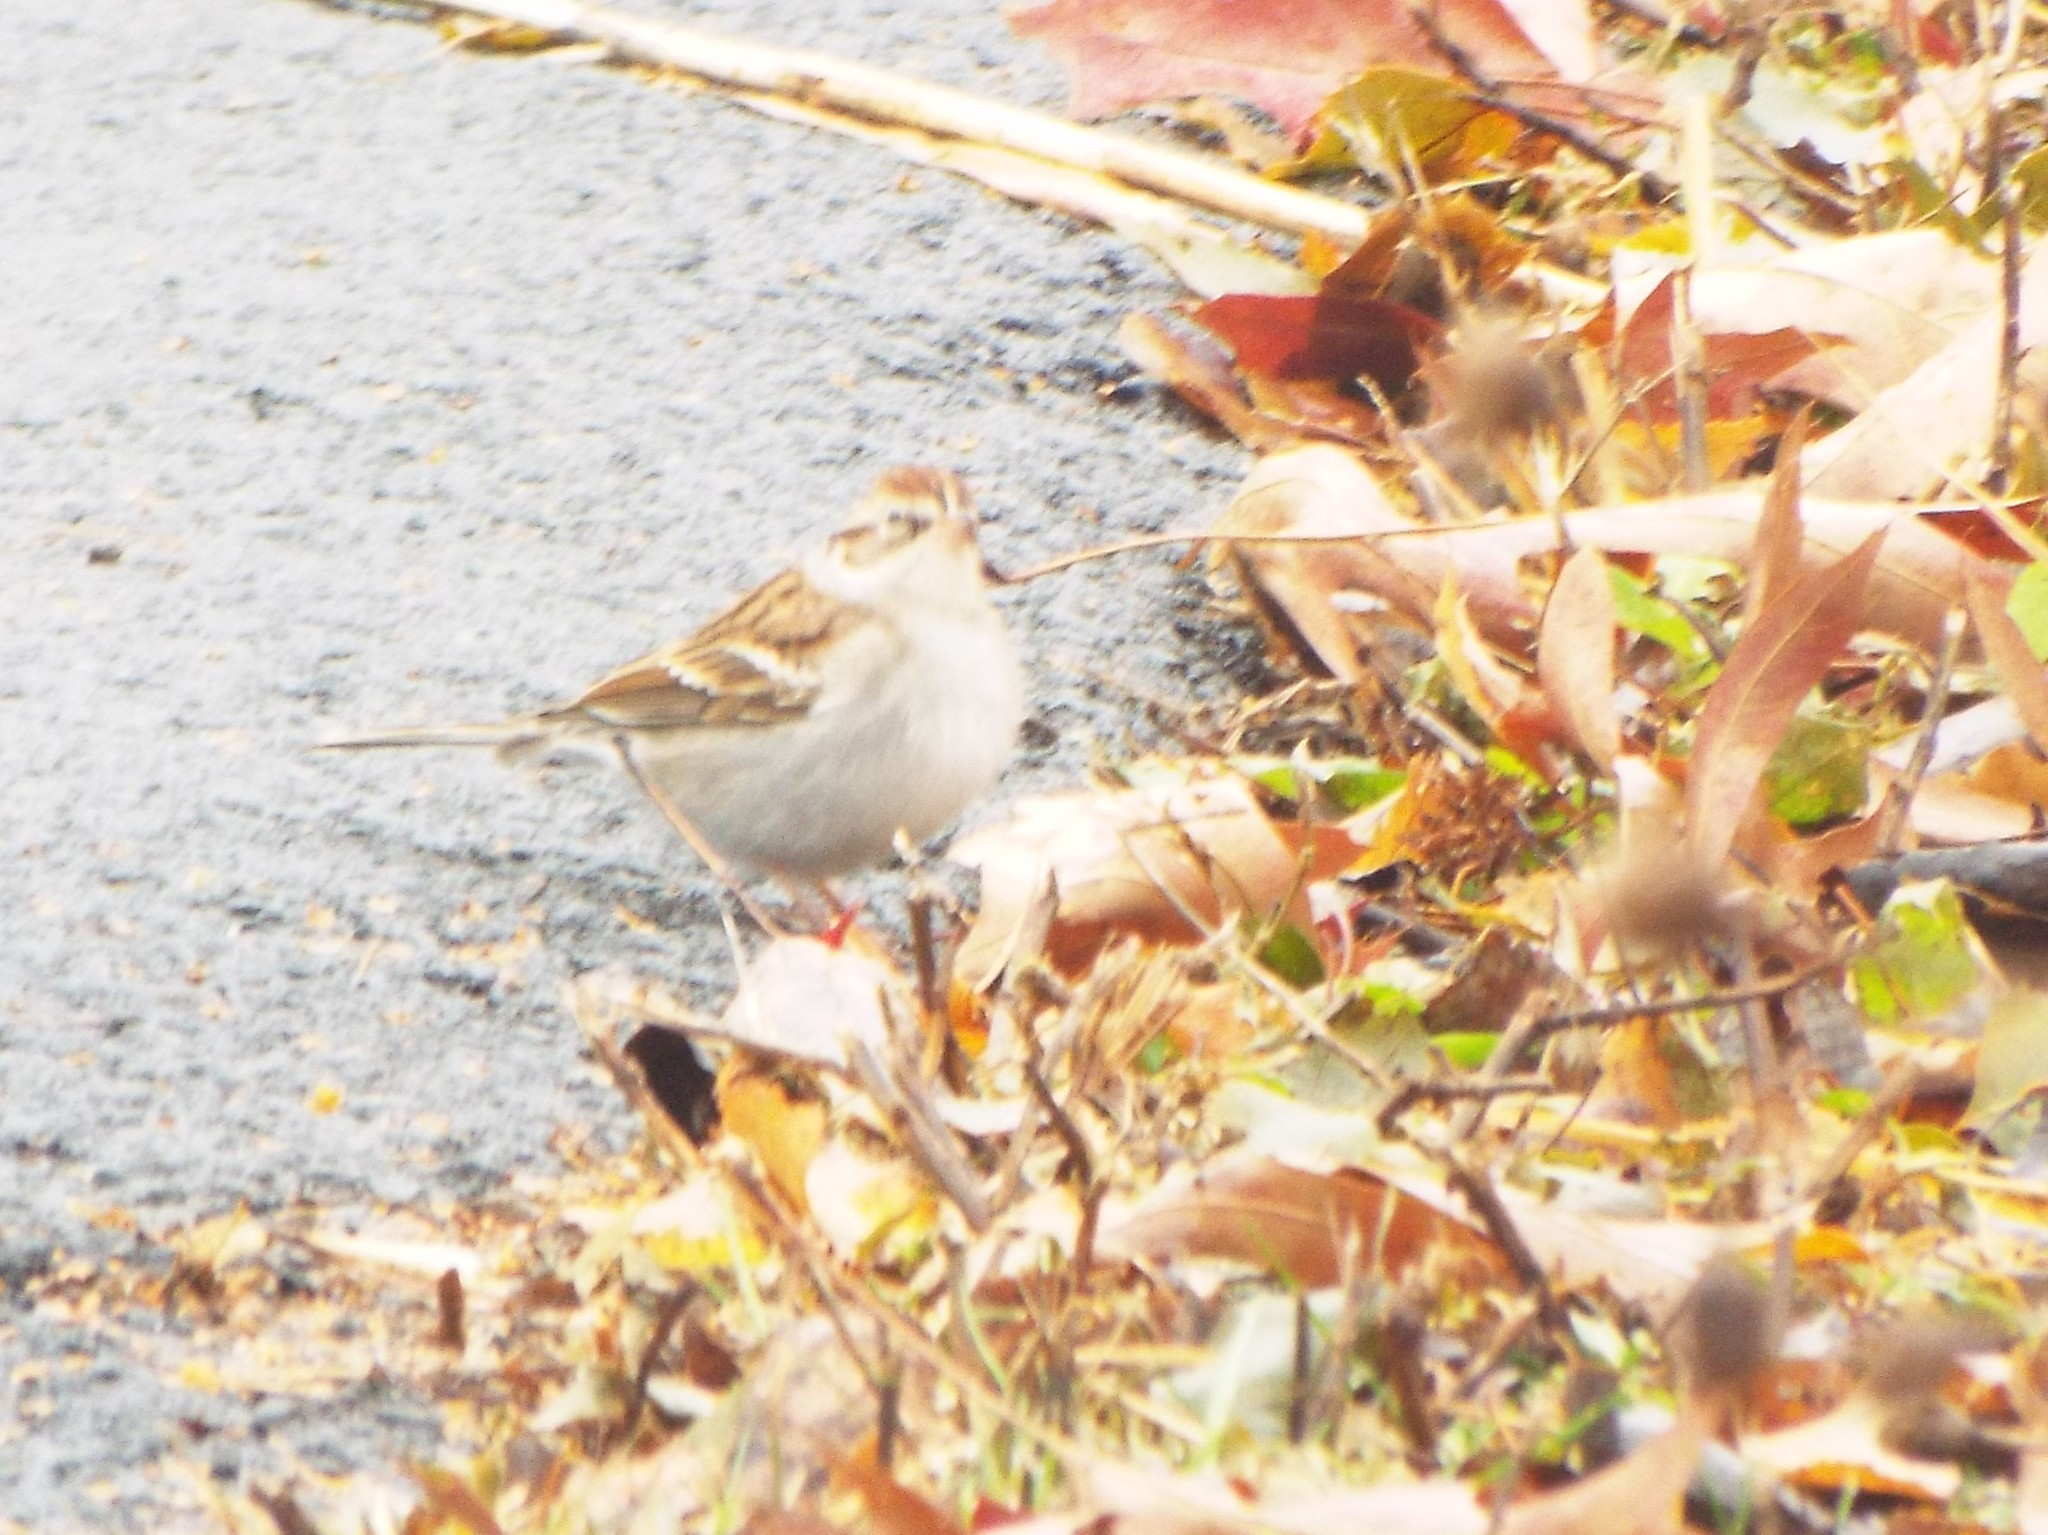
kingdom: Animalia
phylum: Chordata
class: Aves
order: Passeriformes
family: Passerellidae
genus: Spizella
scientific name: Spizella passerina
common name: Chipping sparrow
